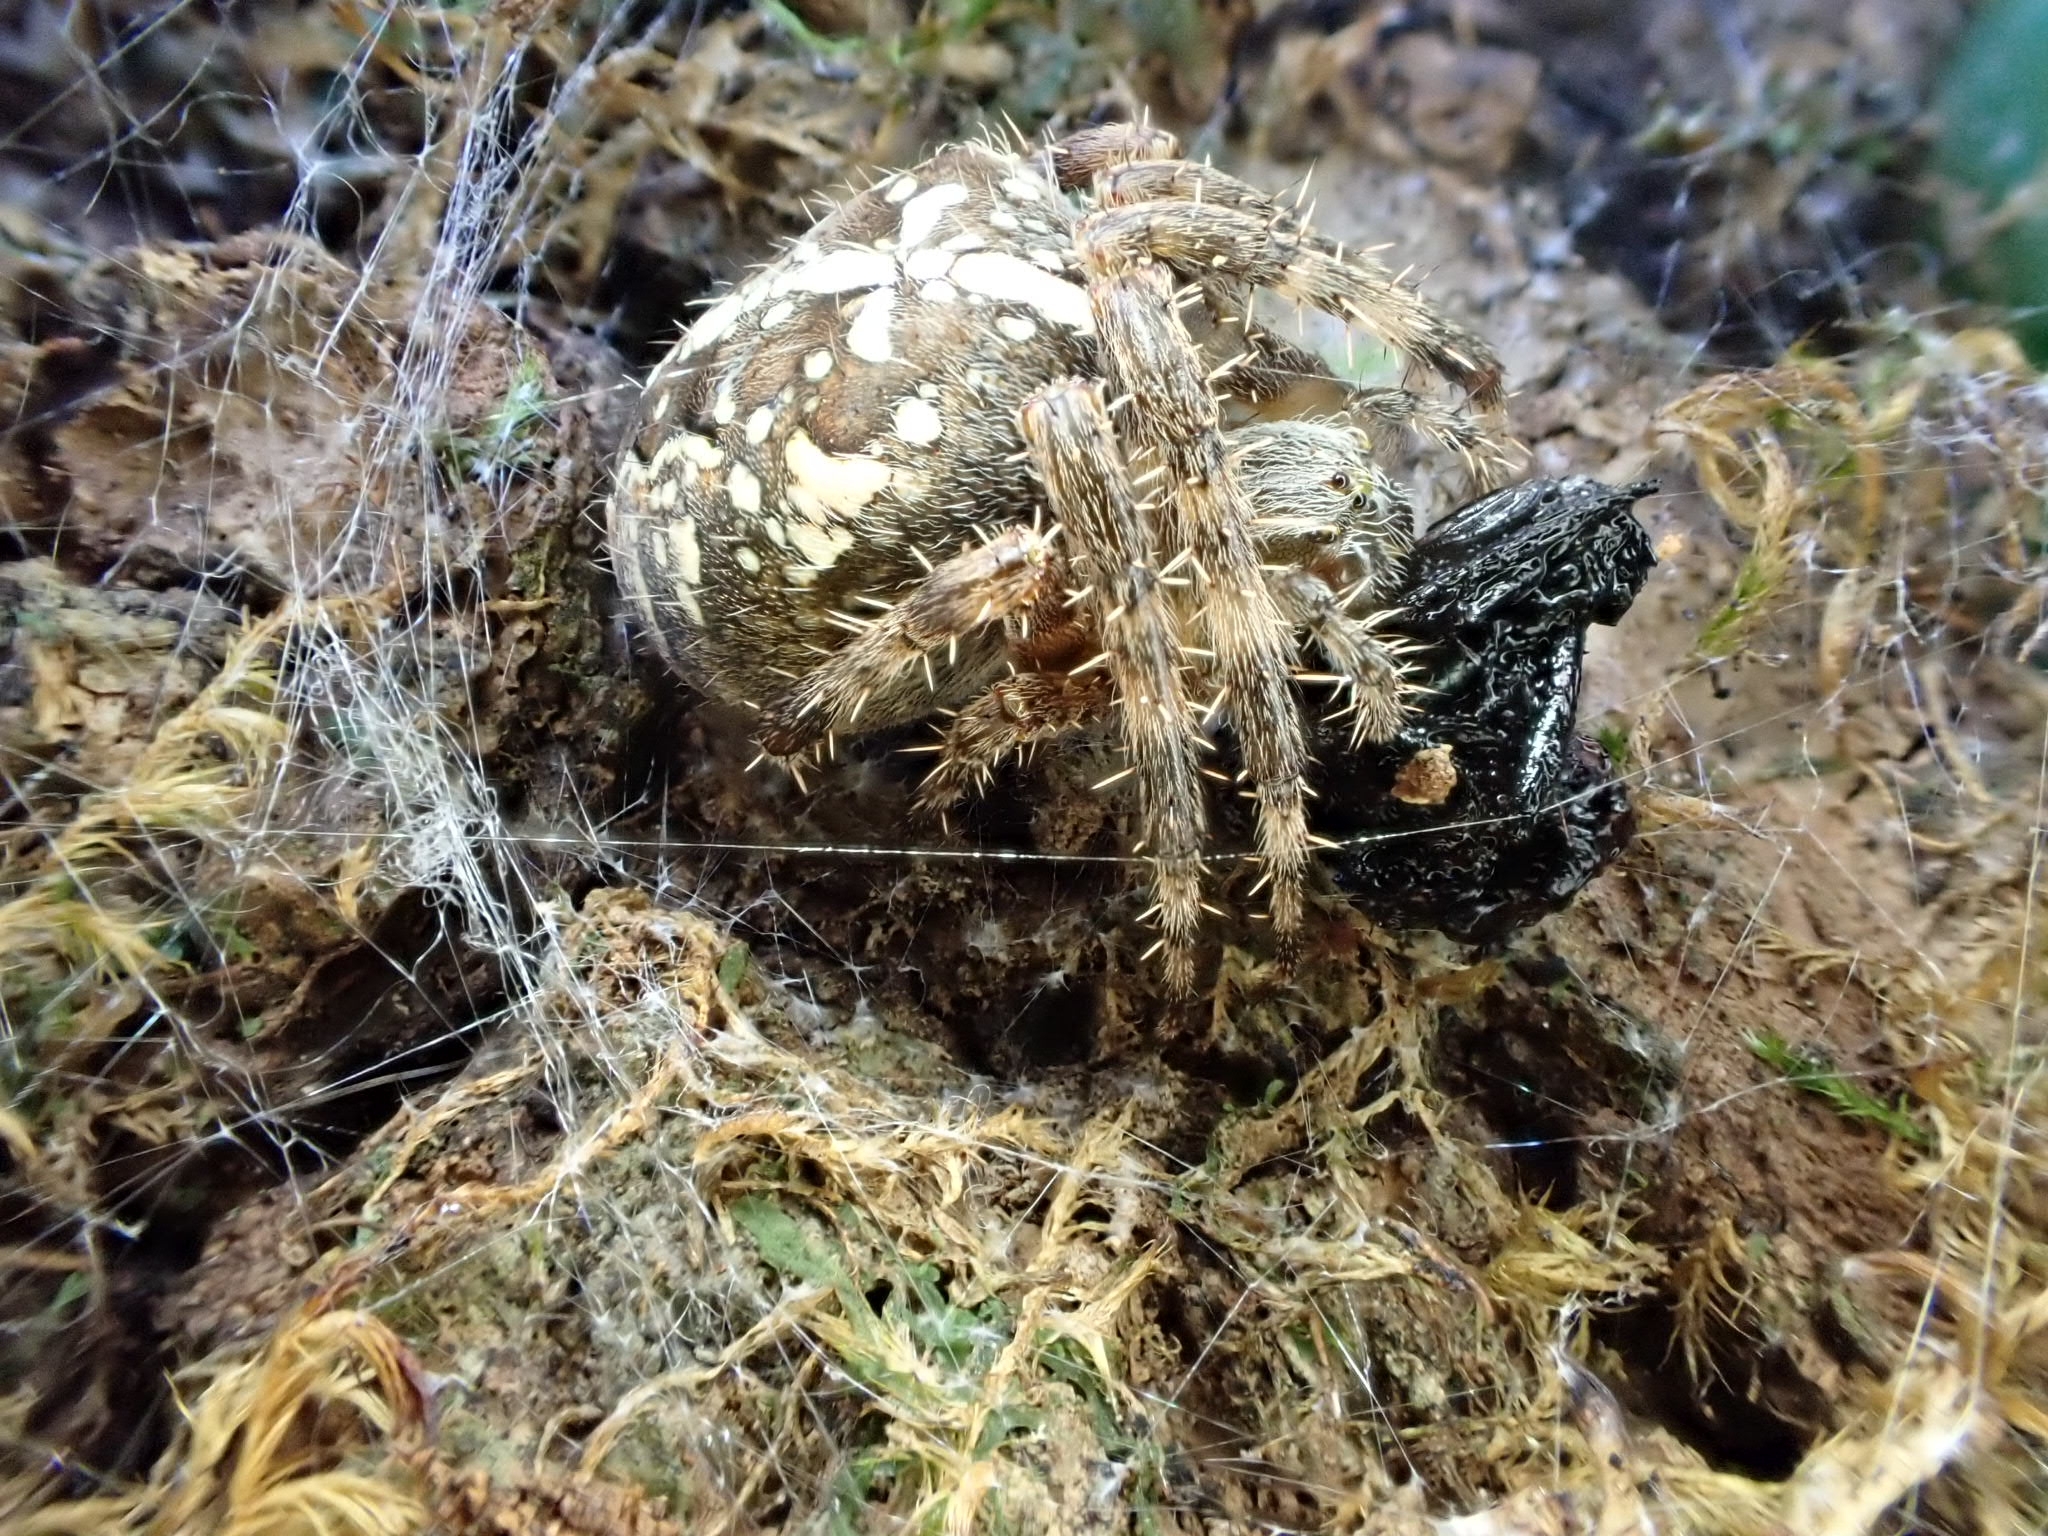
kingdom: Animalia
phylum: Arthropoda
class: Arachnida
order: Araneae
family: Araneidae
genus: Araneus
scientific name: Araneus diadematus
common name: Cross orbweaver
